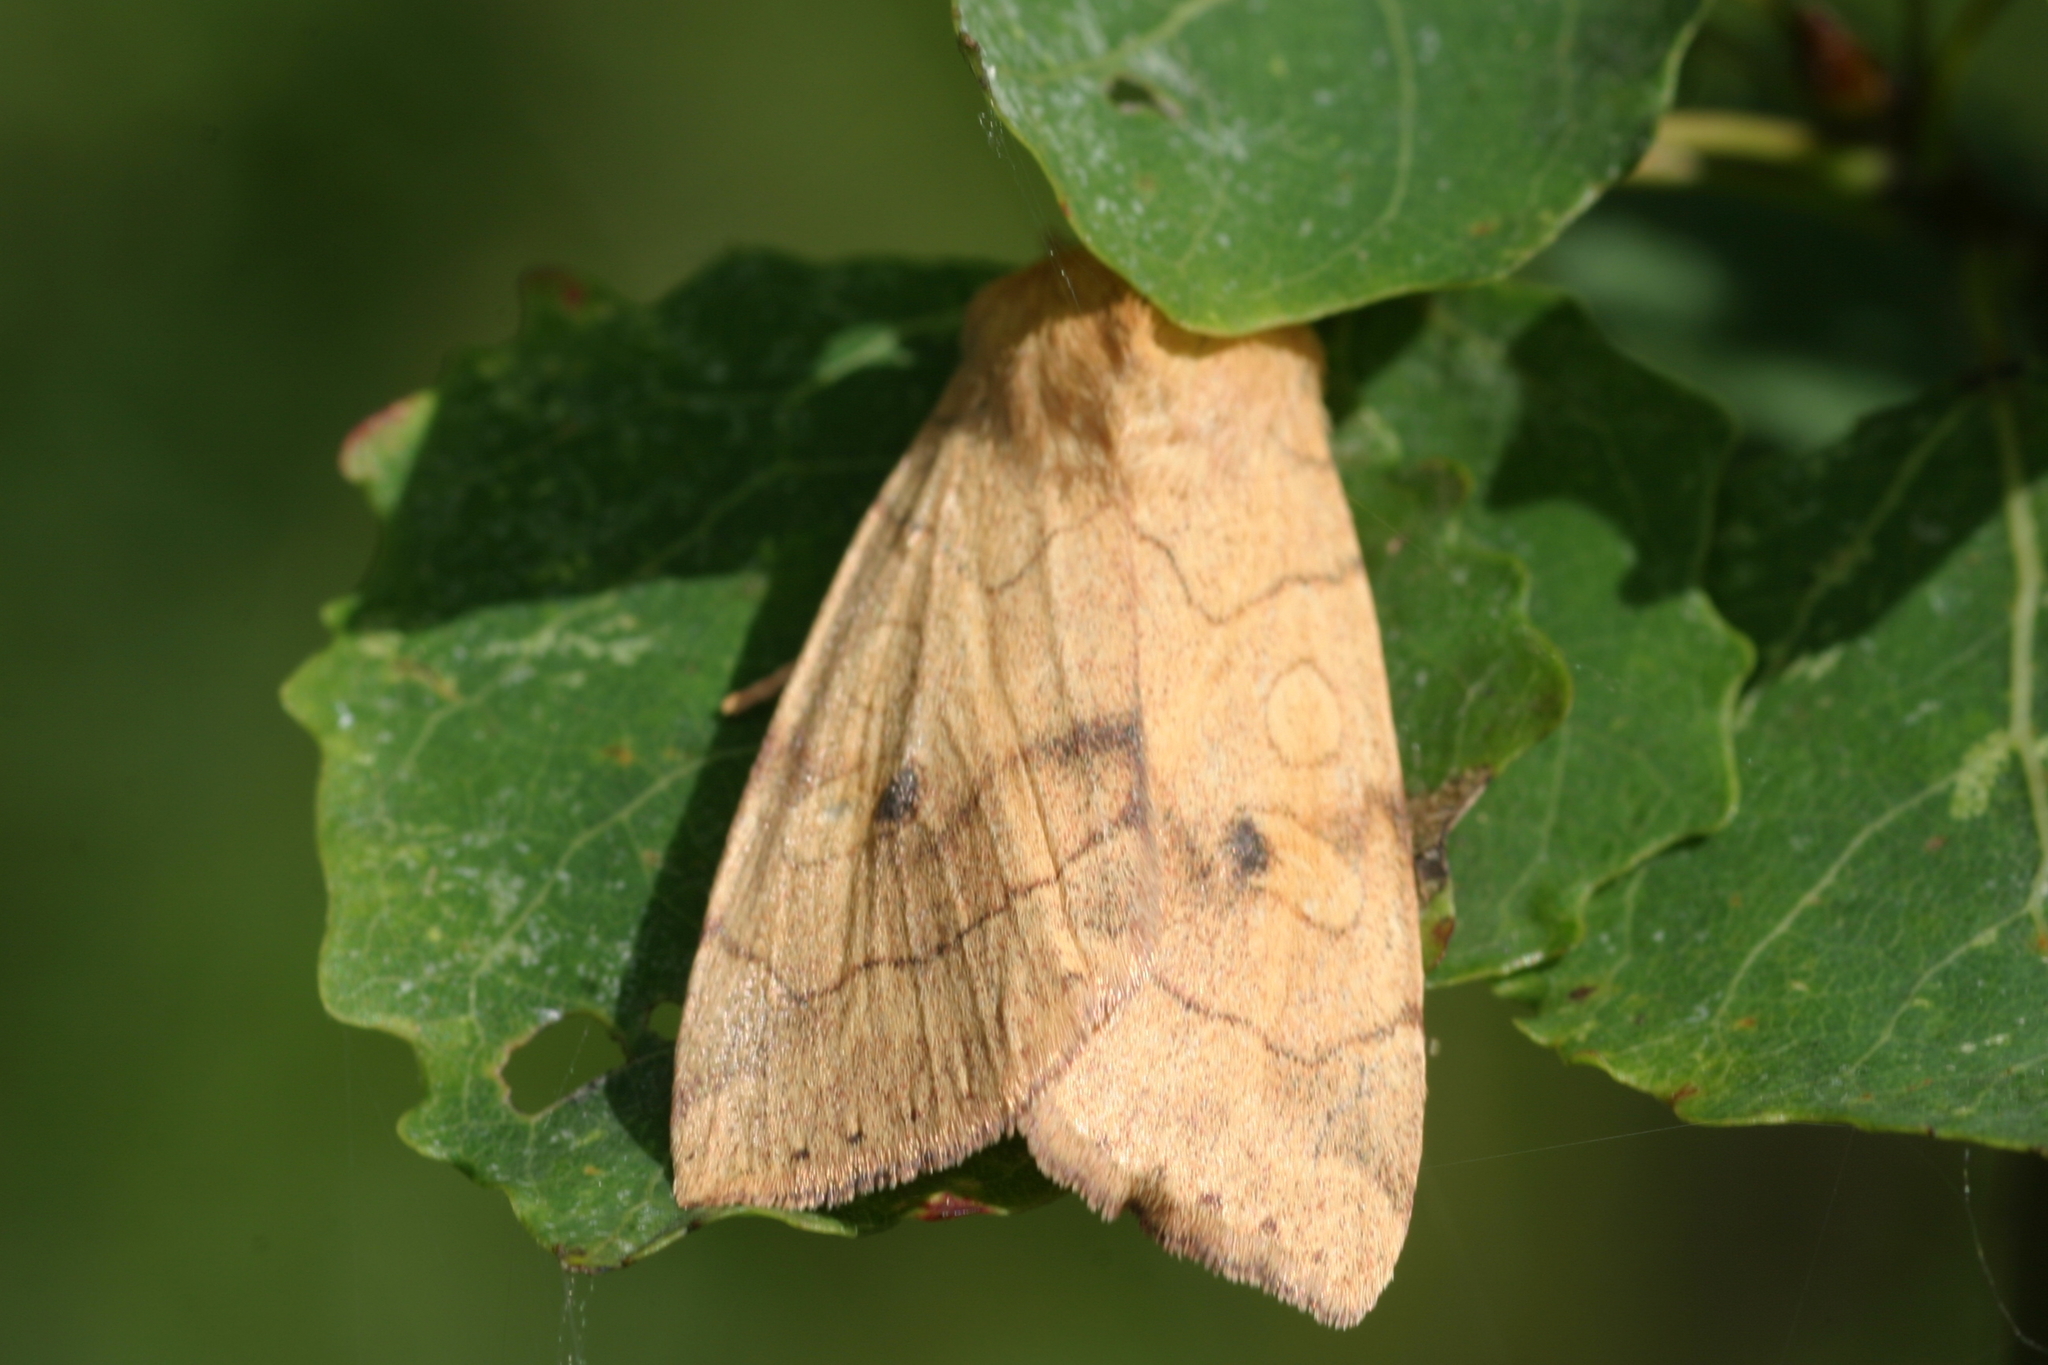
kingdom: Animalia
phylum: Arthropoda
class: Insecta
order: Lepidoptera
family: Noctuidae
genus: Enargia
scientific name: Enargia paleacea
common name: Angle-striped sallow
